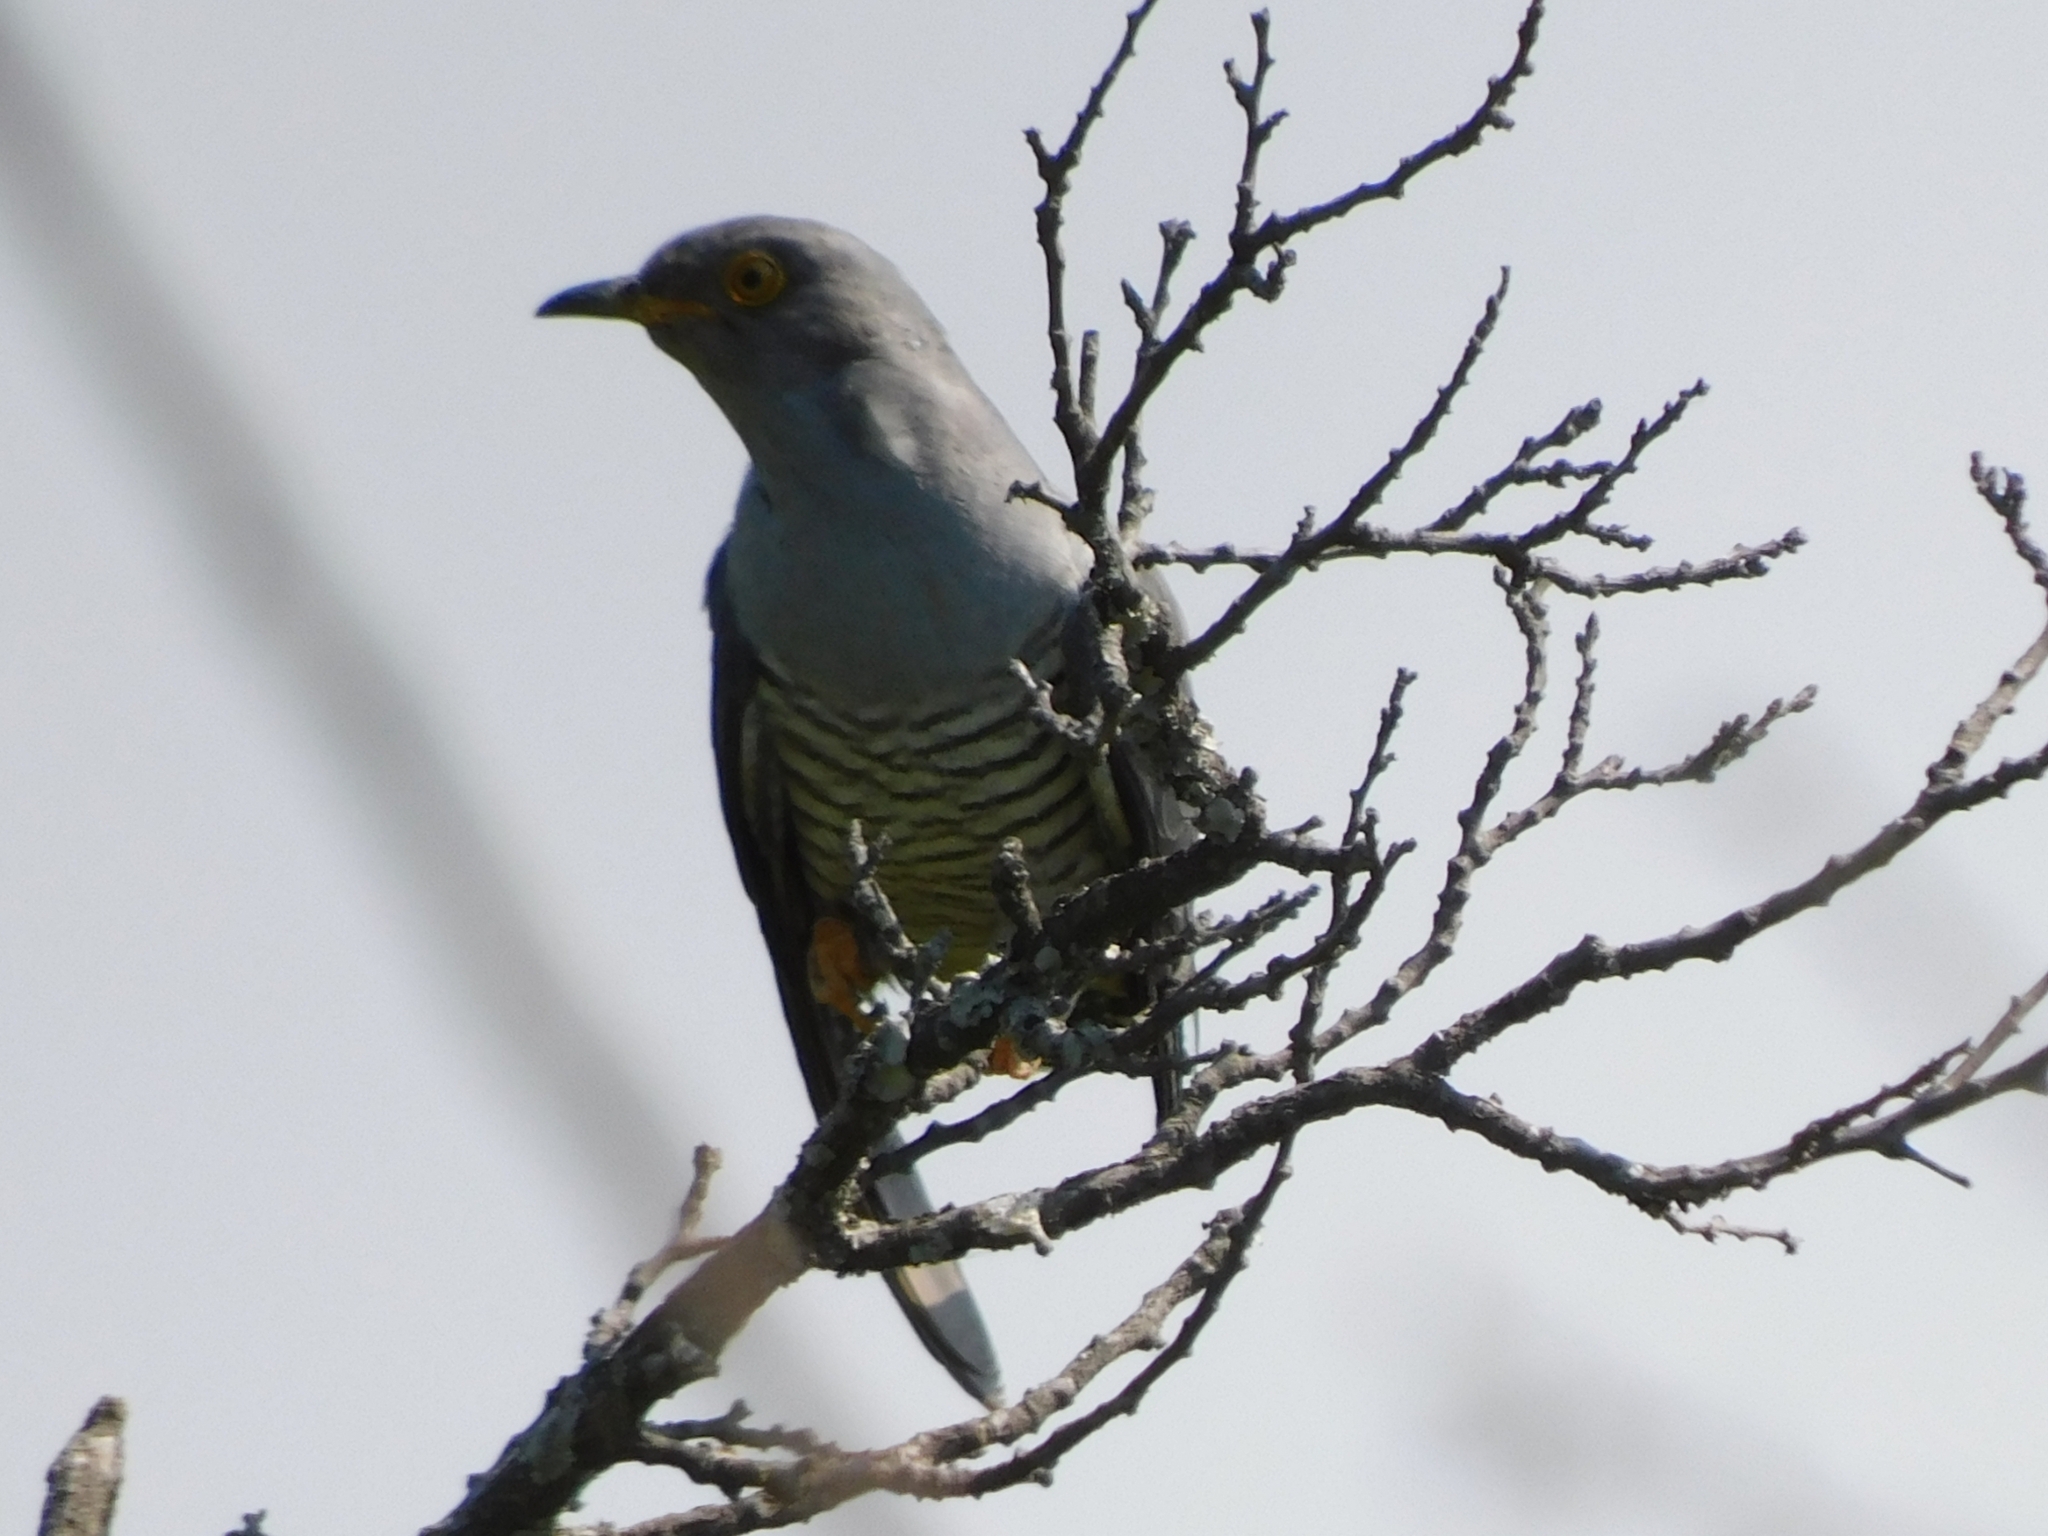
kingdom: Animalia
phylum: Chordata
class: Aves
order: Cuculiformes
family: Cuculidae
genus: Cuculus
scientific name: Cuculus canorus
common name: Common cuckoo
